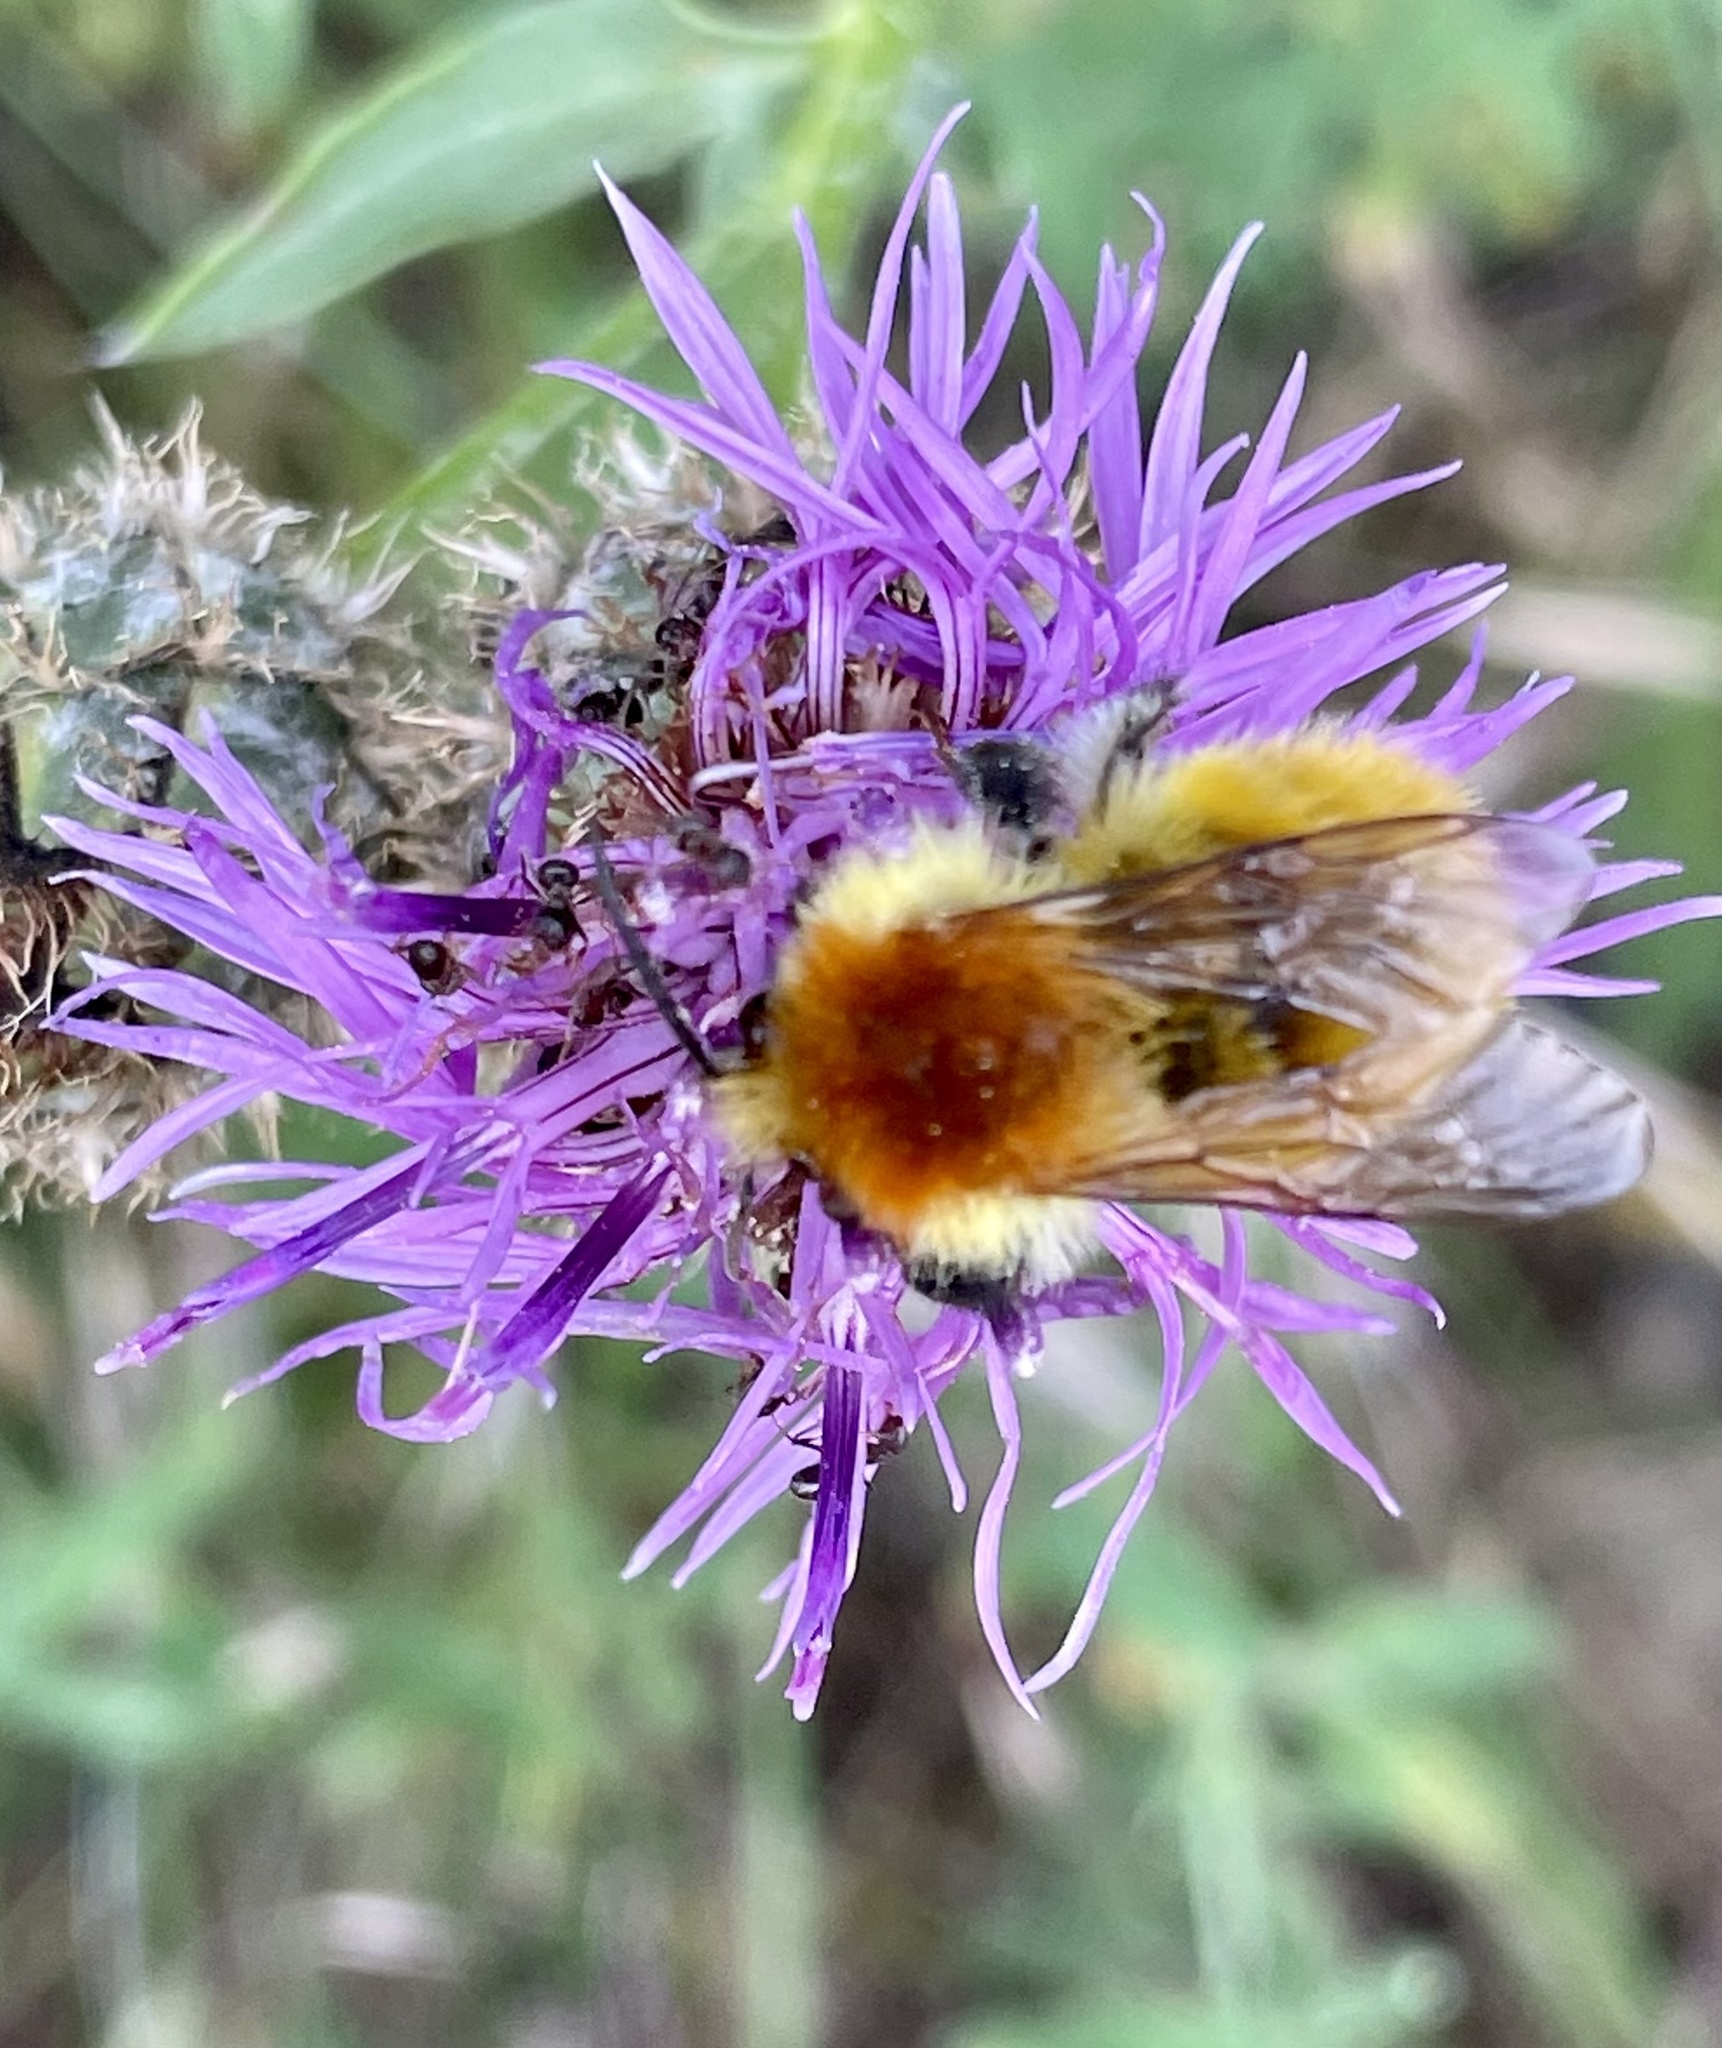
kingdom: Animalia
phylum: Arthropoda
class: Insecta
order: Hymenoptera
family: Apidae
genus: Bombus
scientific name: Bombus pascuorum
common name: Common carder bee
